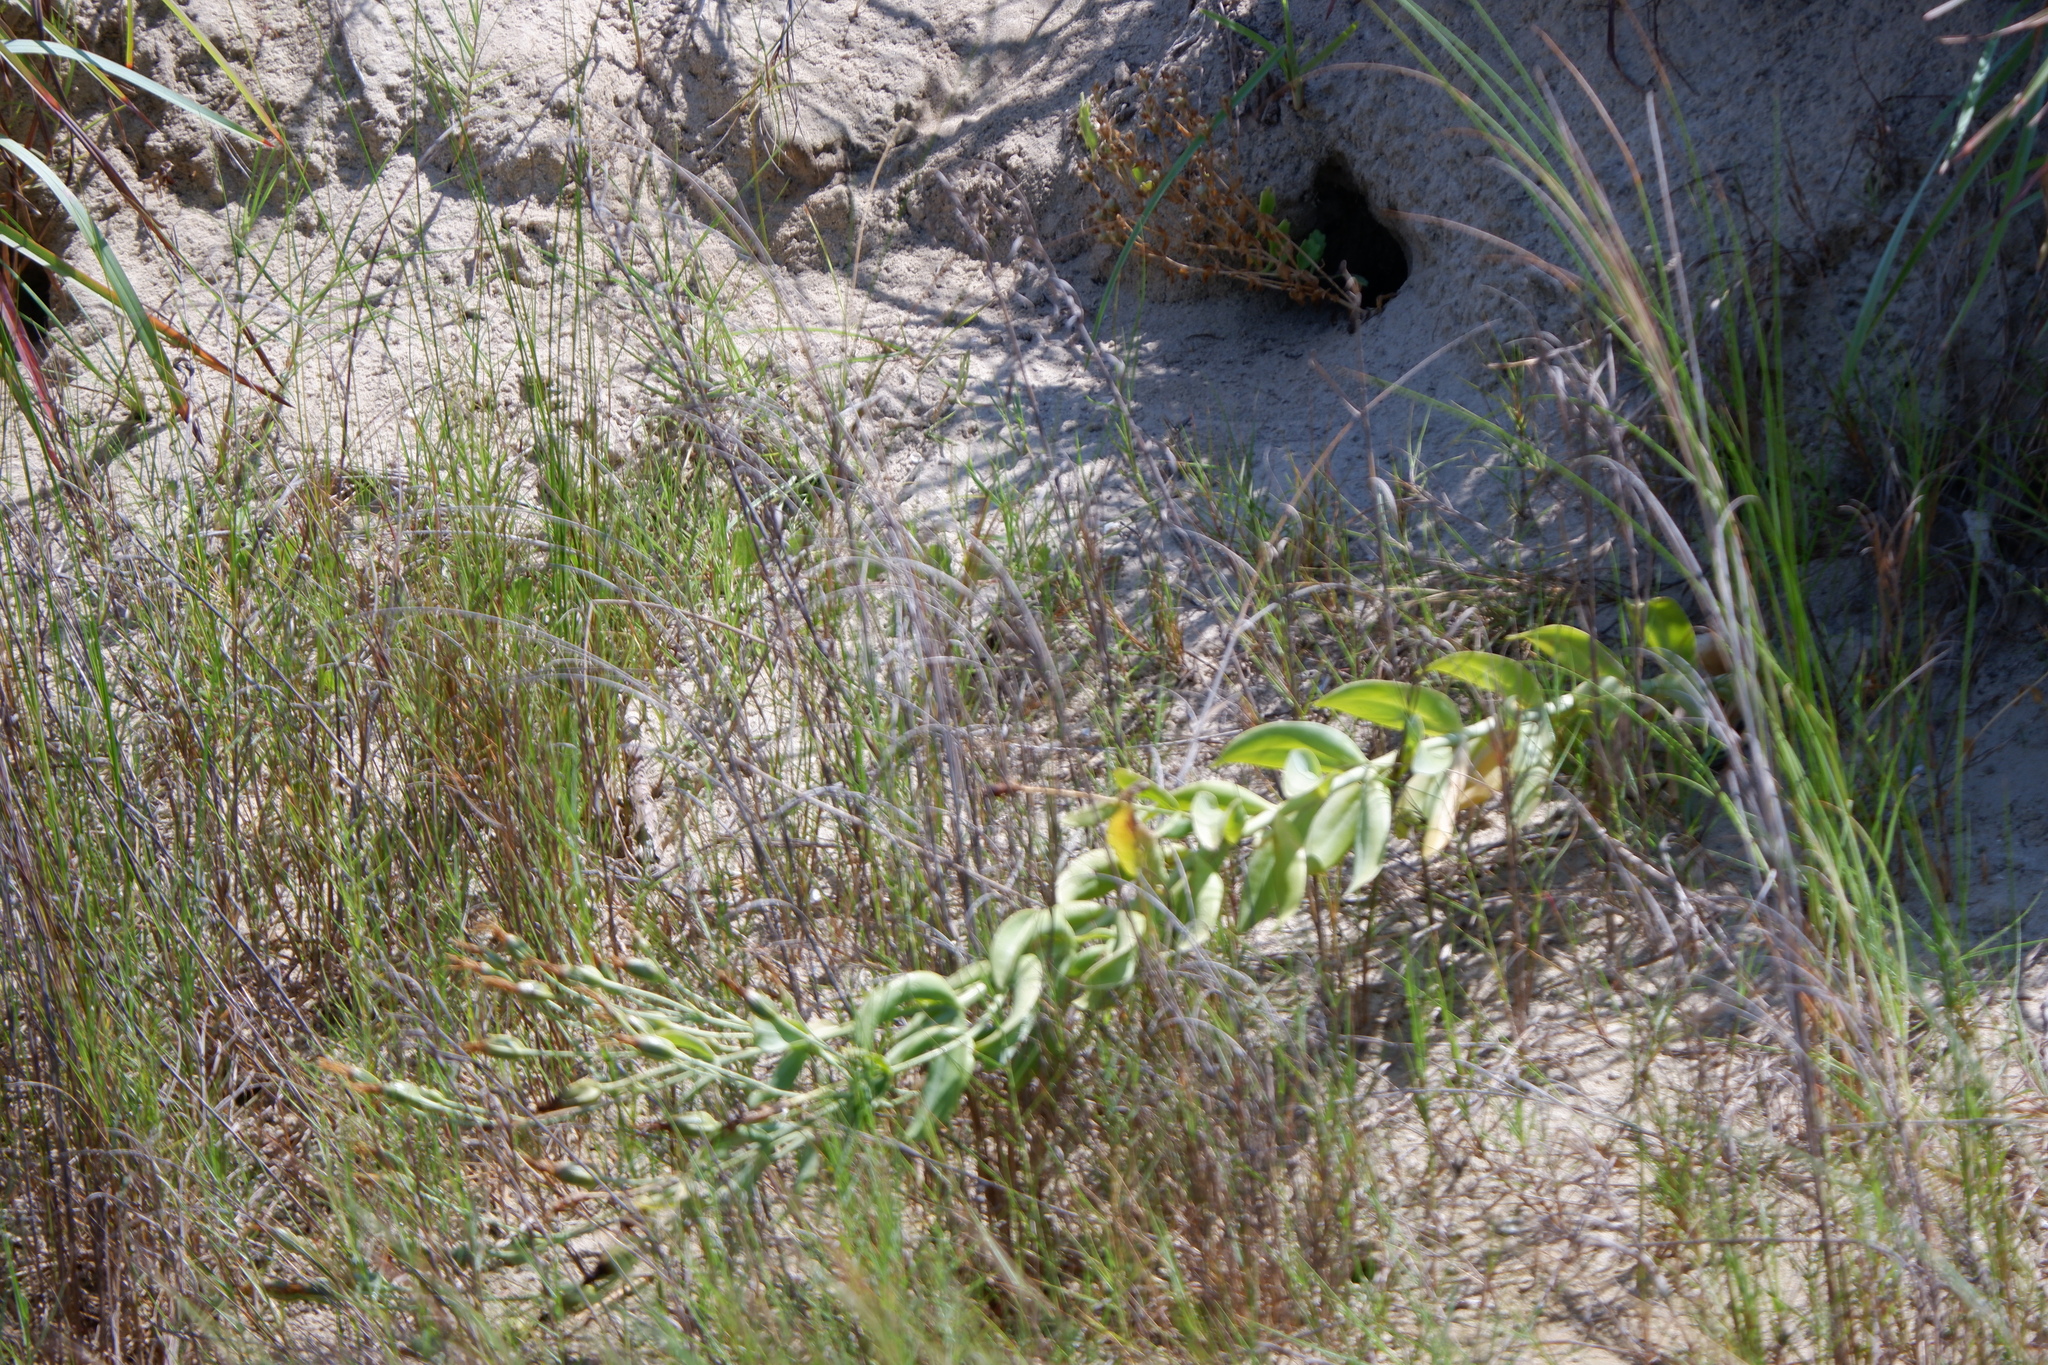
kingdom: Plantae
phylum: Tracheophyta
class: Magnoliopsida
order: Gentianales
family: Gentianaceae
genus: Eustoma
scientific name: Eustoma exaltatum
